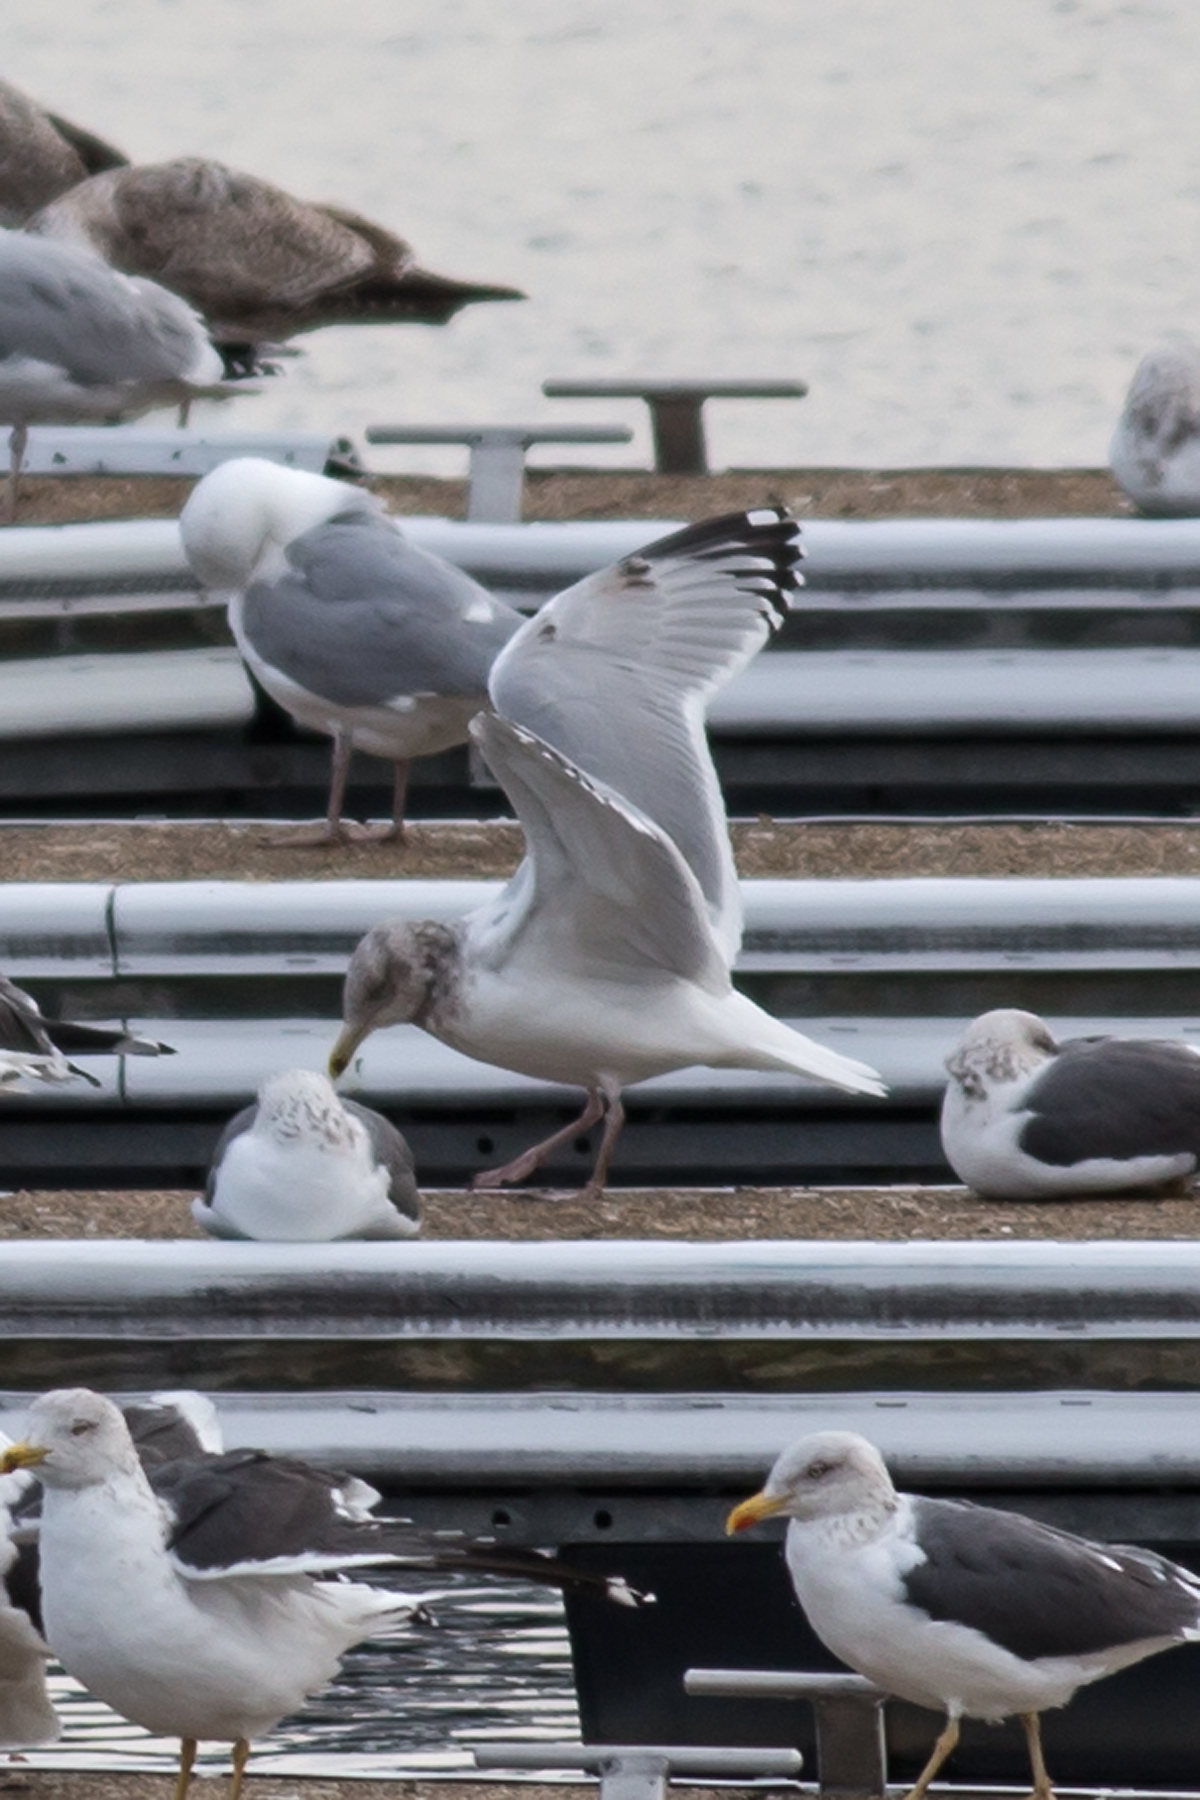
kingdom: Animalia
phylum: Chordata
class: Aves
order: Charadriiformes
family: Laridae
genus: Larus
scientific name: Larus argentatus
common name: Herring gull
